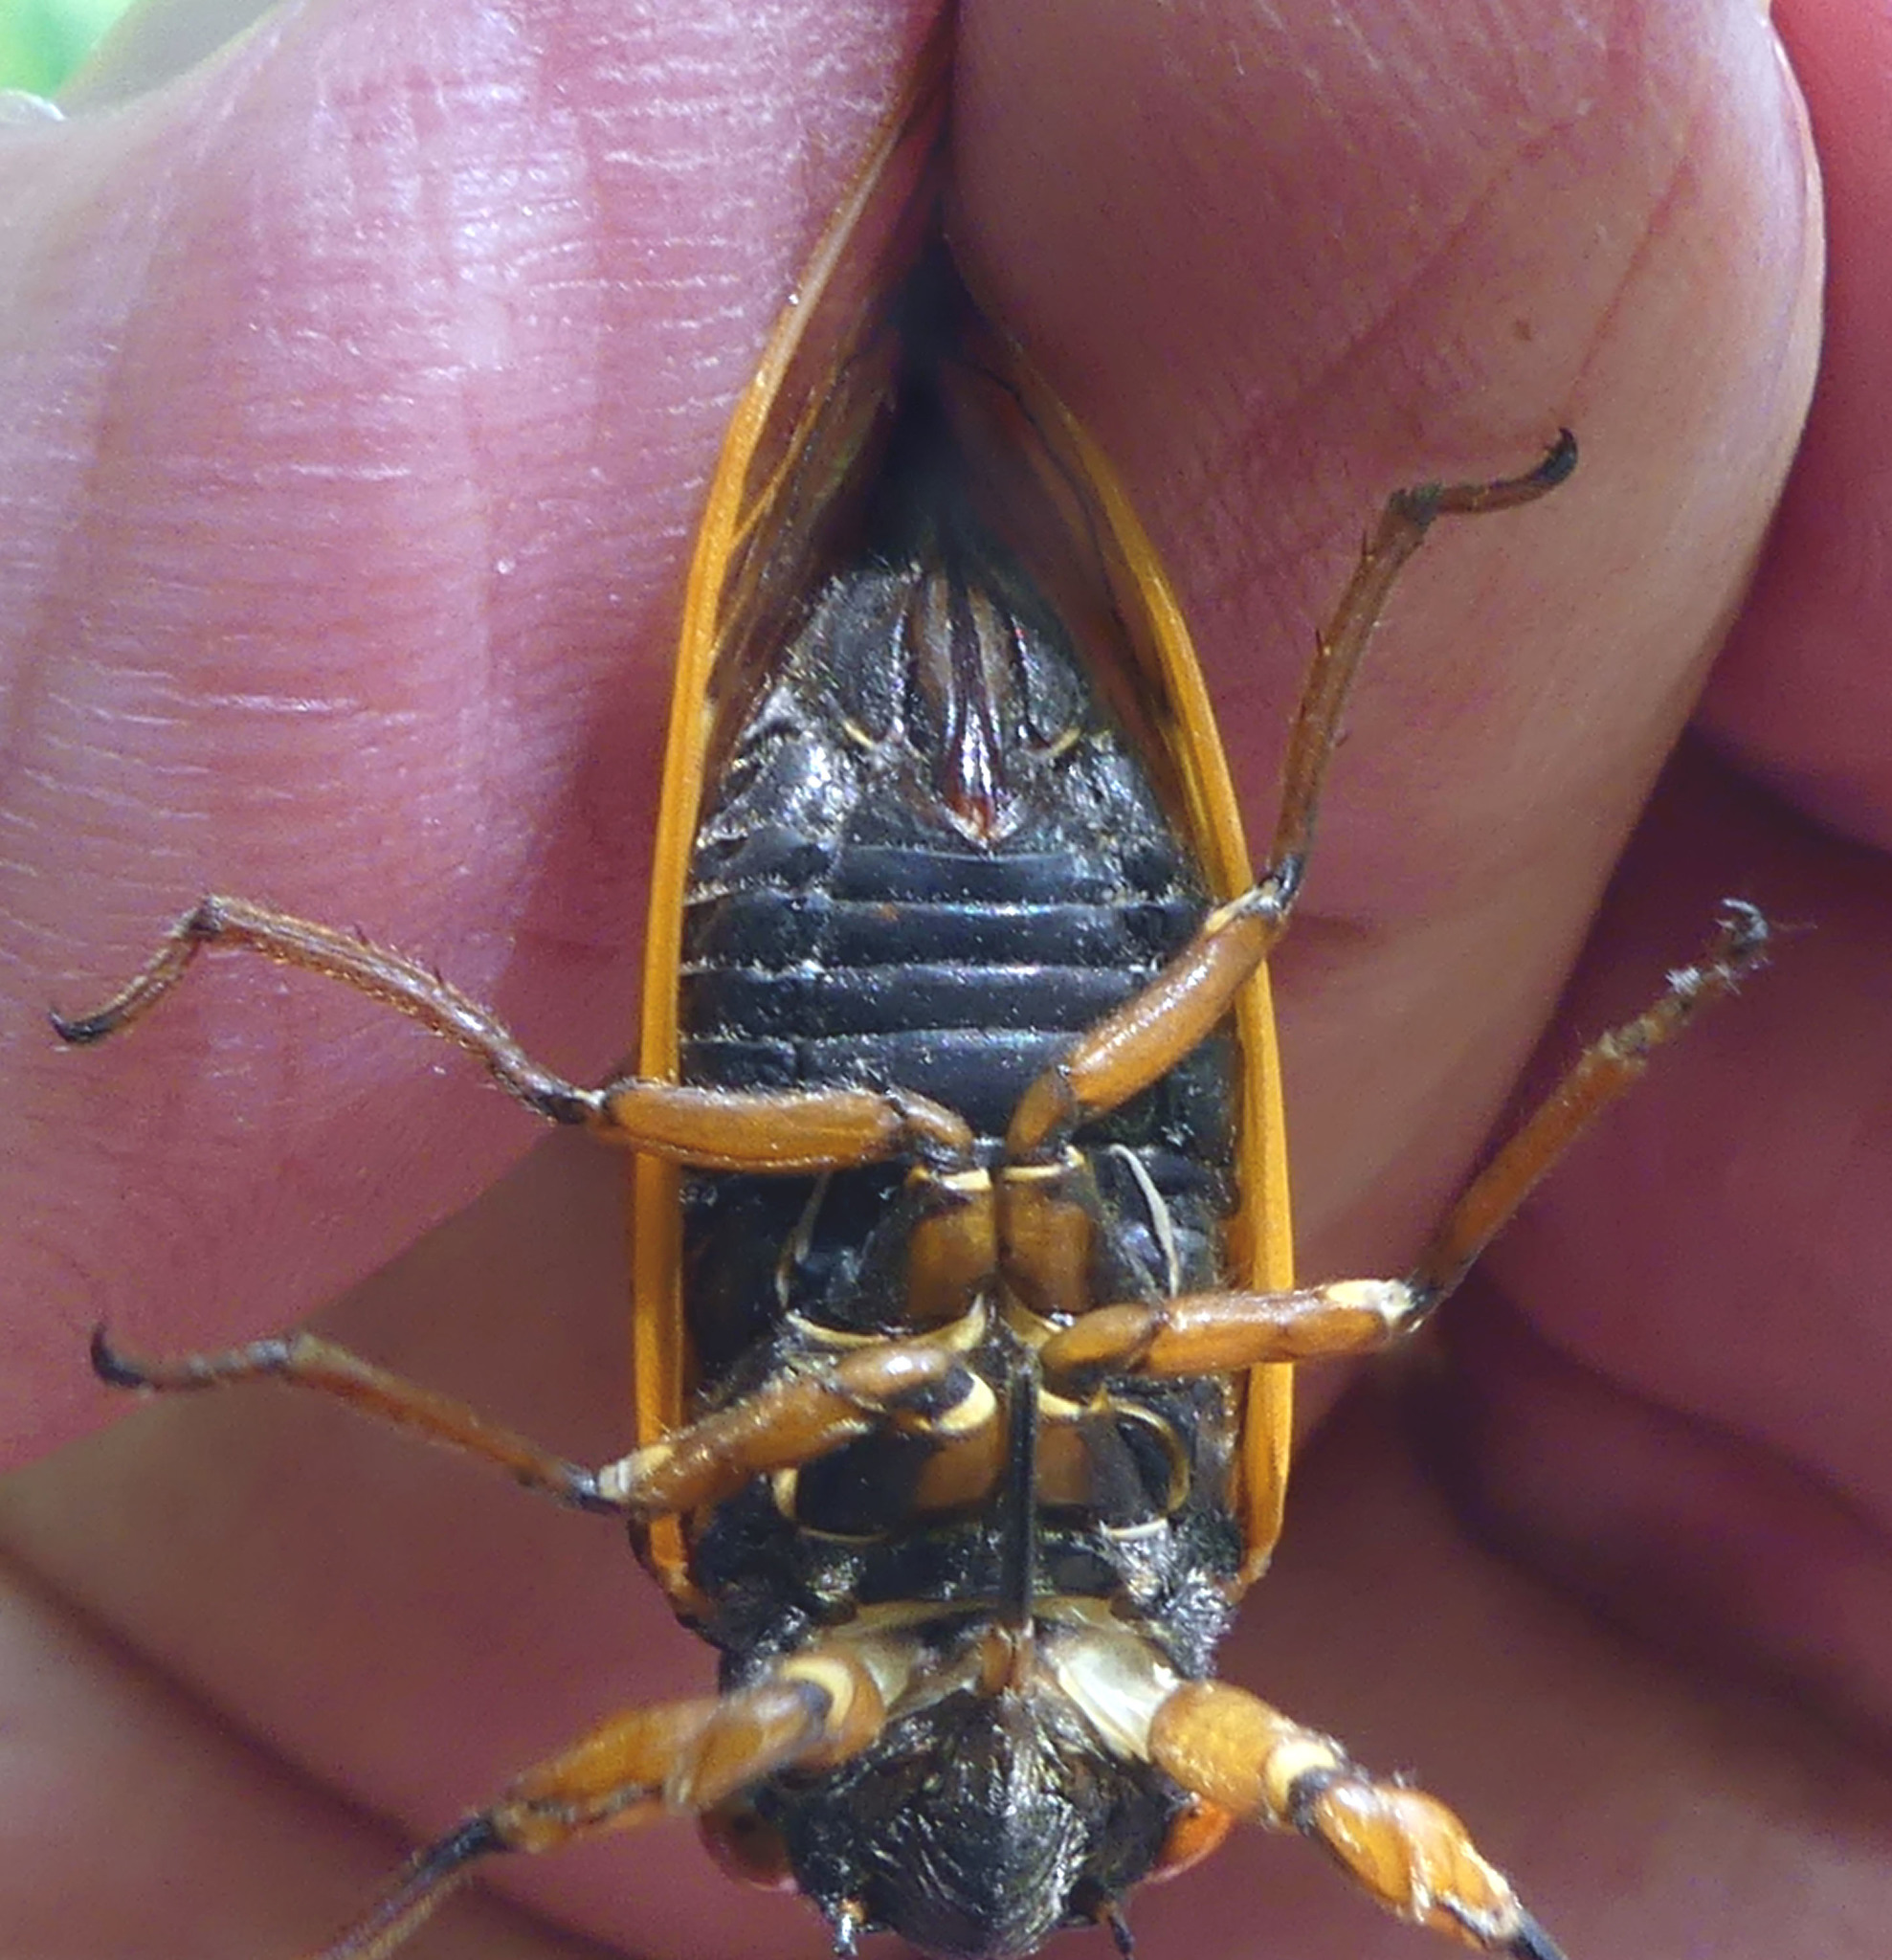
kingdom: Animalia
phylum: Arthropoda
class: Insecta
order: Hemiptera
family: Cicadidae
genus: Magicicada
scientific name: Magicicada cassini
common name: Cassin's 17-year cicada
